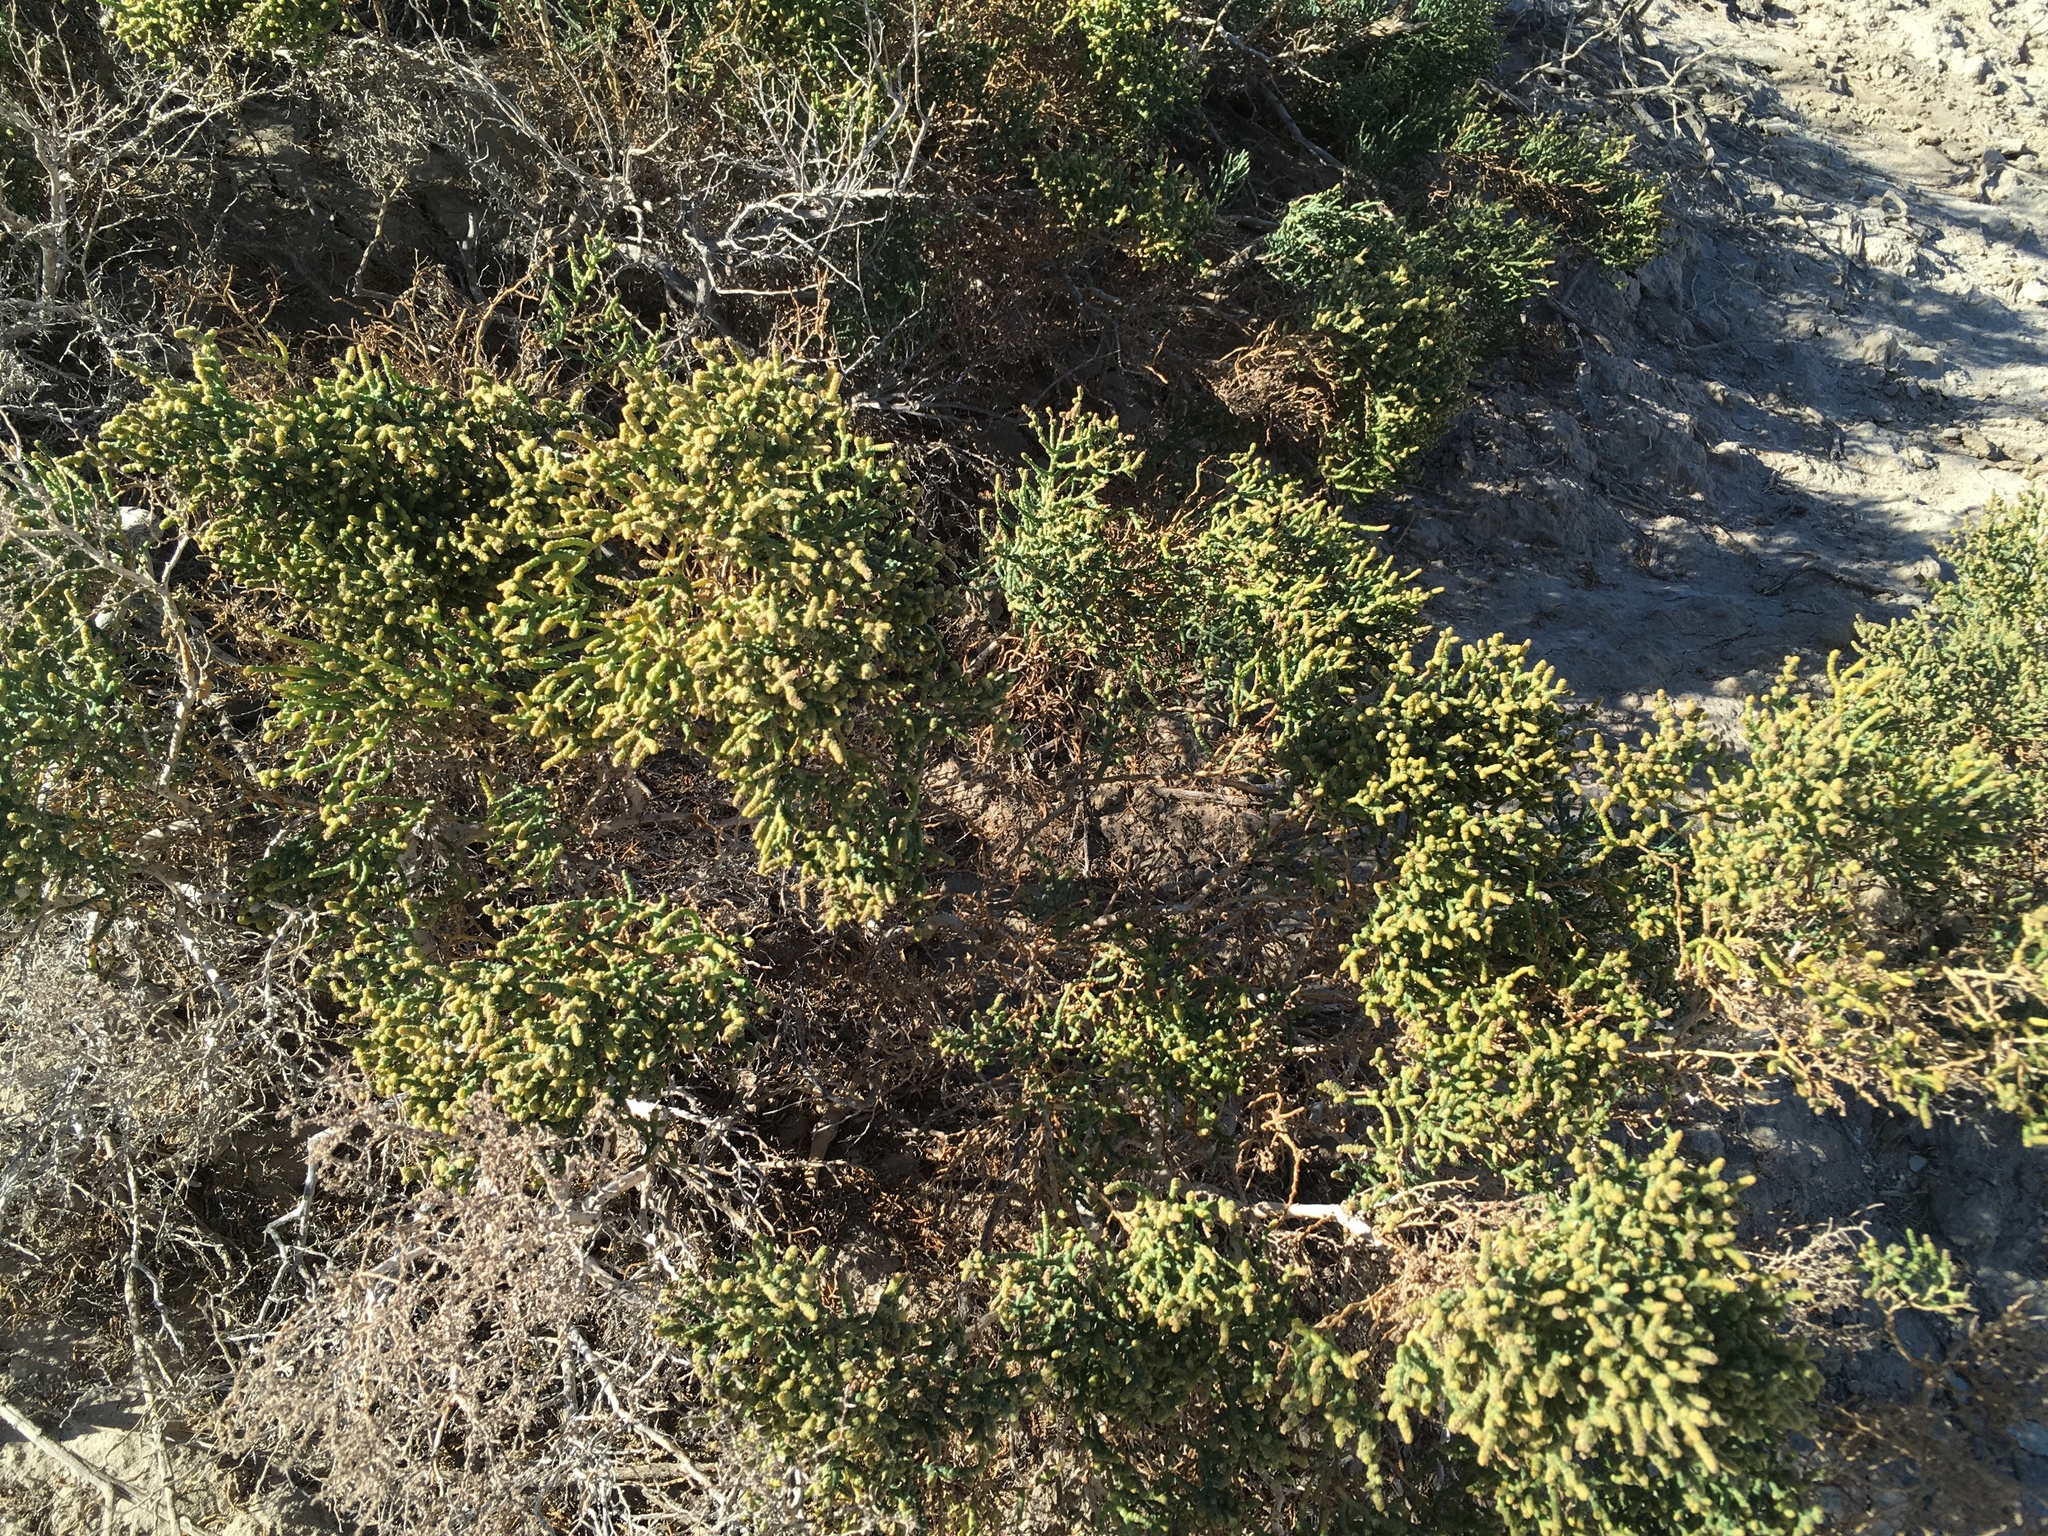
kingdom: Plantae
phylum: Tracheophyta
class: Magnoliopsida
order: Caryophyllales
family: Amaranthaceae
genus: Allenrolfea
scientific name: Allenrolfea occidentalis
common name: Iodine-bush
